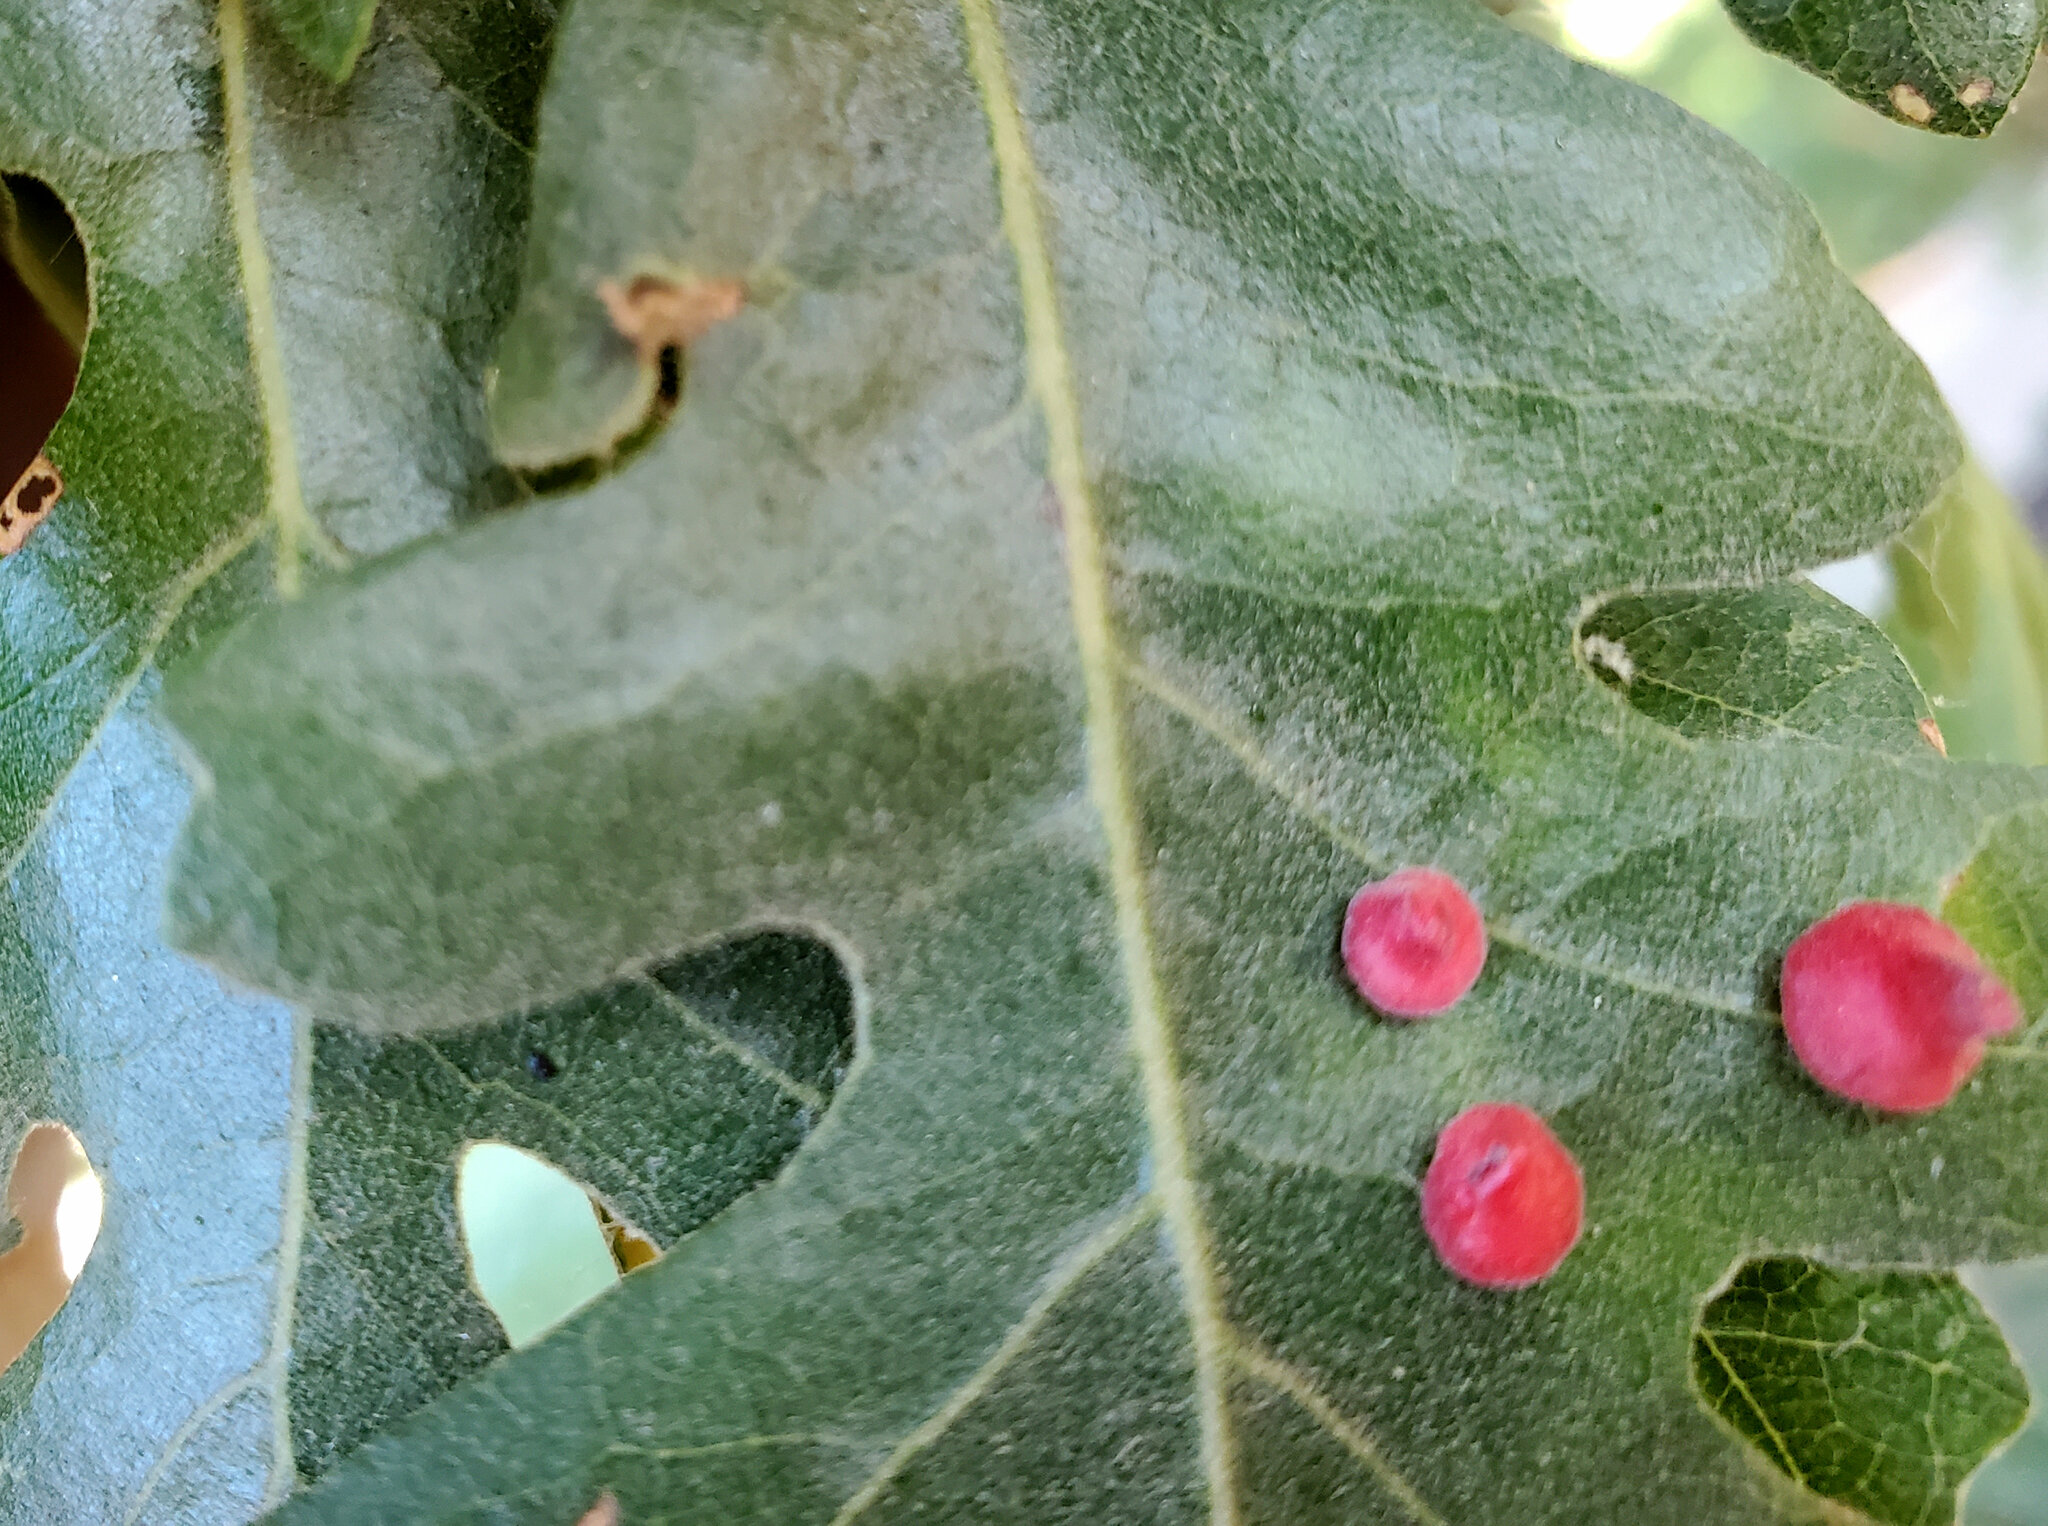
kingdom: Animalia
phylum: Arthropoda
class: Insecta
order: Hymenoptera
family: Cynipidae
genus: Andricus
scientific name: Andricus
